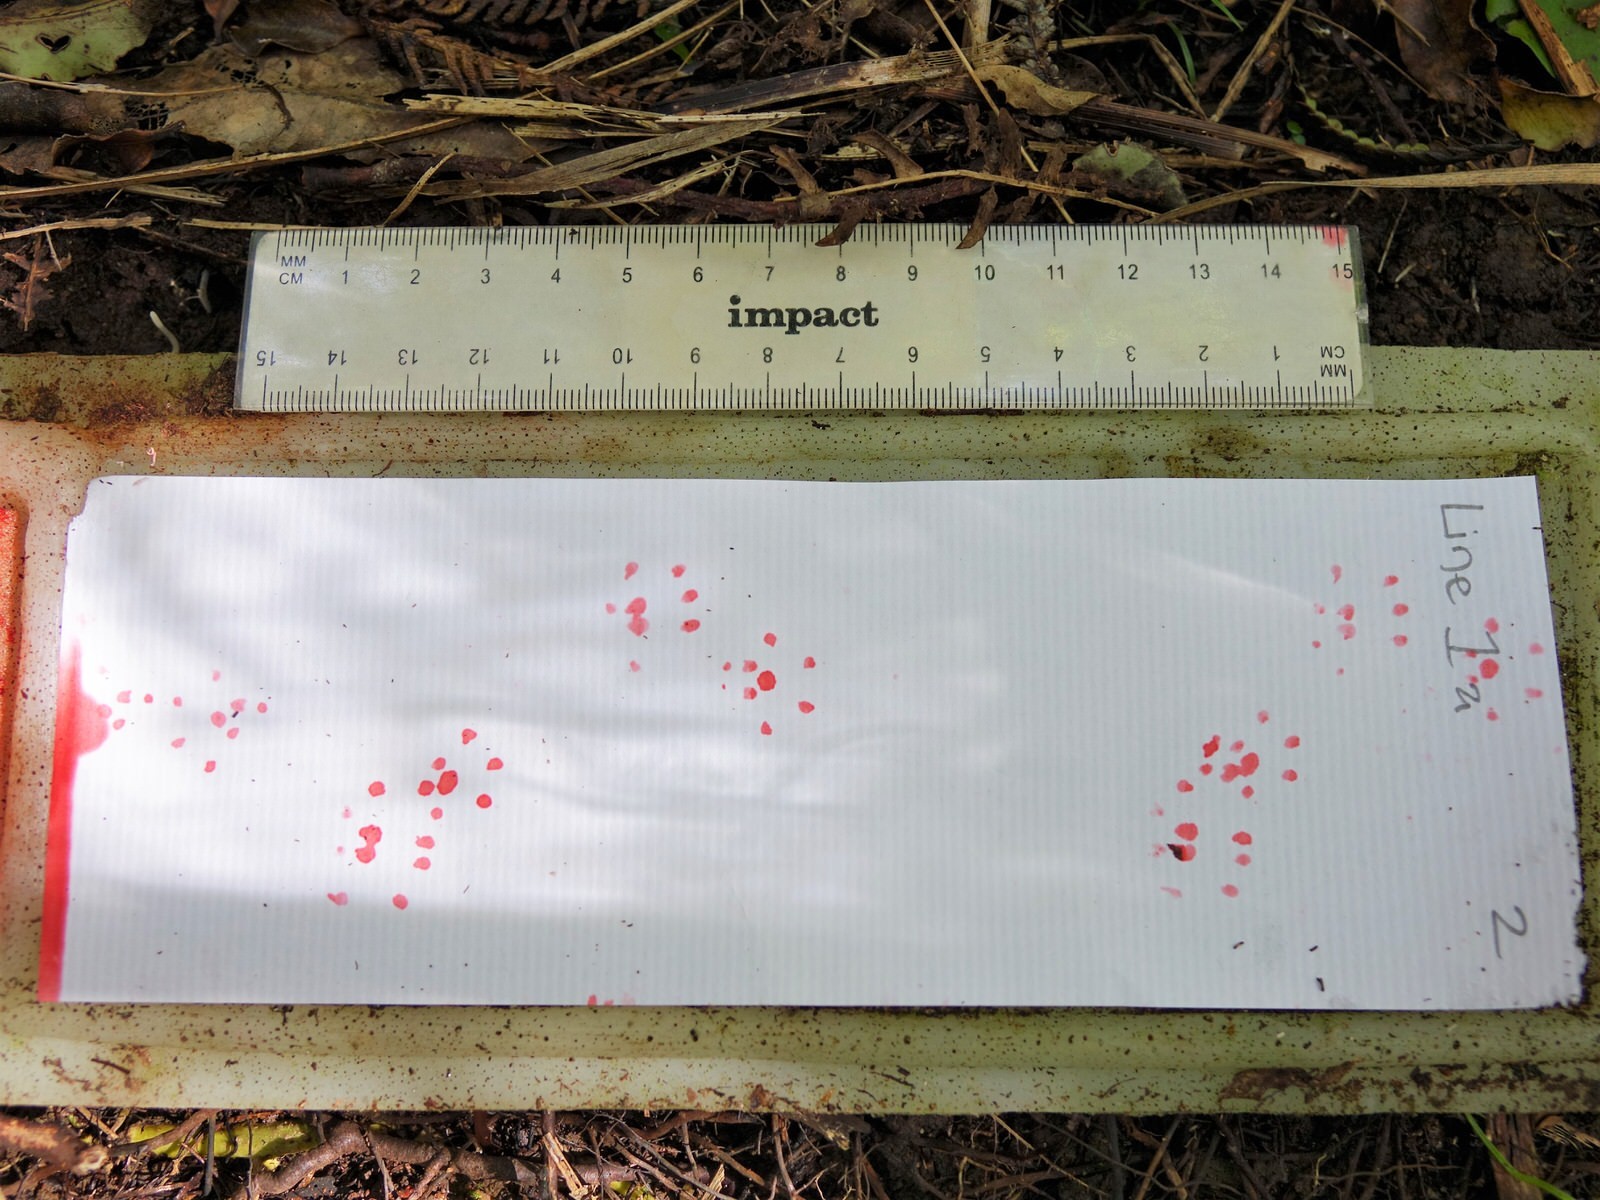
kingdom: Animalia
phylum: Chordata
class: Mammalia
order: Rodentia
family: Muridae
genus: Rattus
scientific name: Rattus
